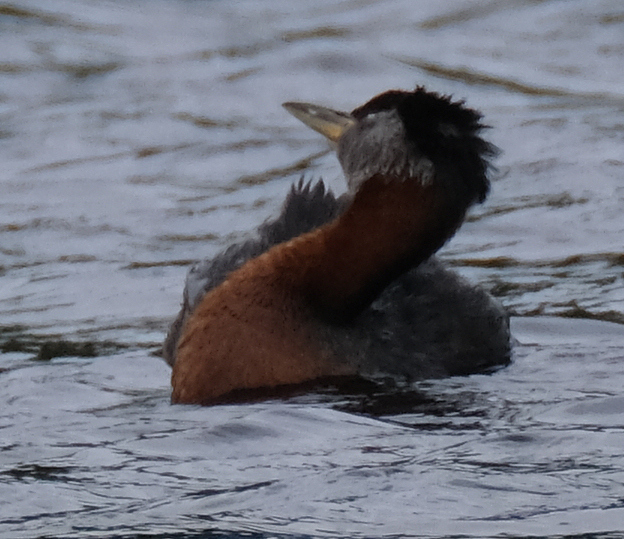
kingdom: Animalia
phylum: Chordata
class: Aves
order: Podicipediformes
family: Podicipedidae
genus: Podiceps
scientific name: Podiceps grisegena
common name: Red-necked grebe
